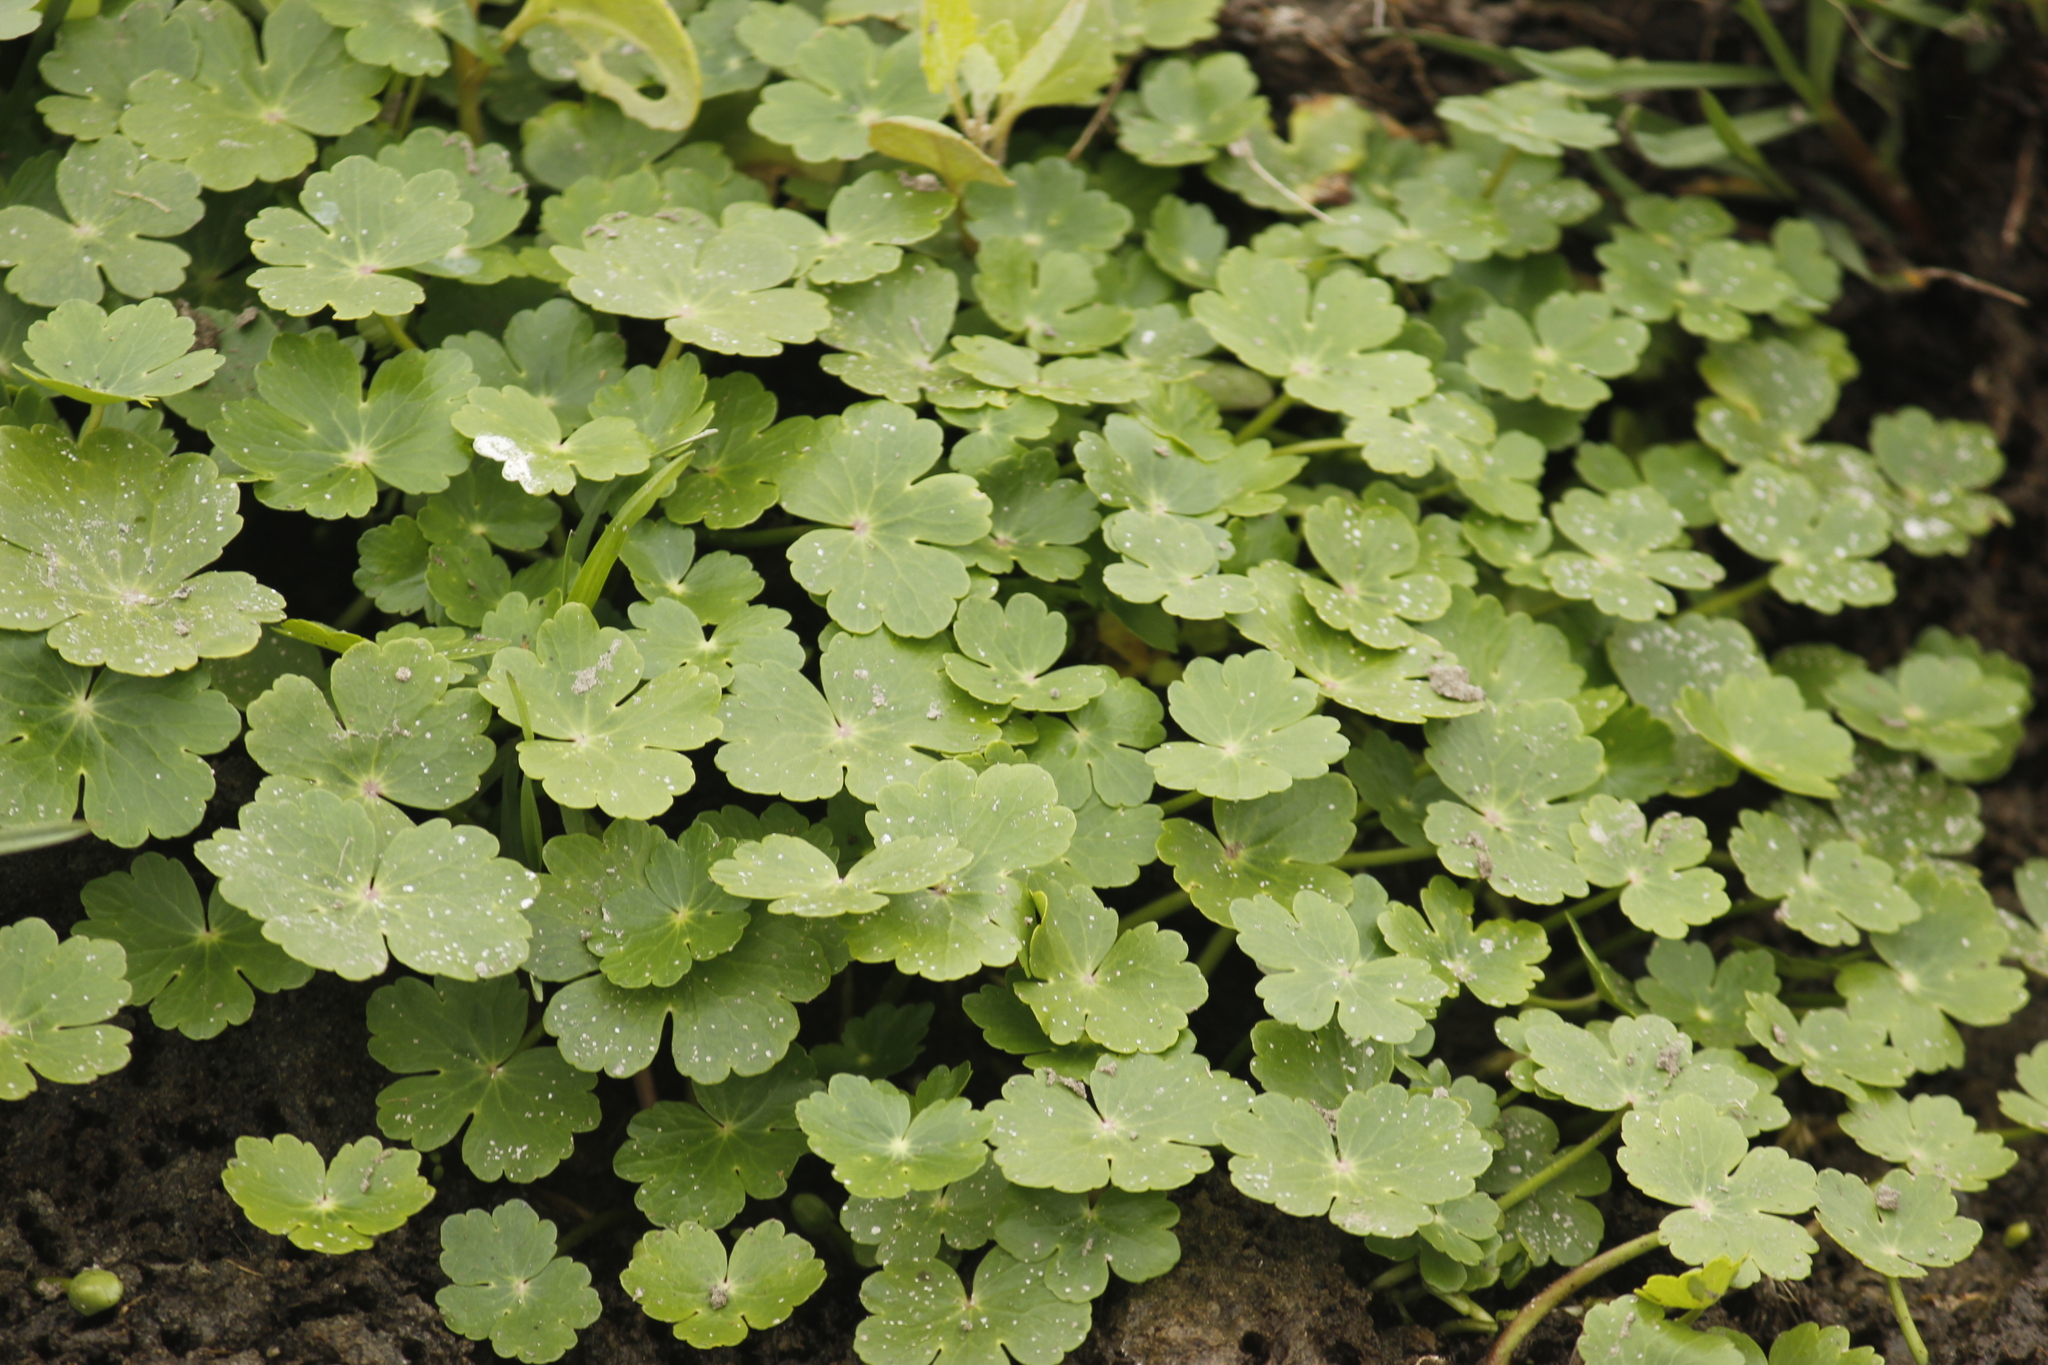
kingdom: Plantae
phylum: Tracheophyta
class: Magnoliopsida
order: Apiales
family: Araliaceae
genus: Hydrocotyle
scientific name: Hydrocotyle ranunculoides
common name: Floating pennywort
